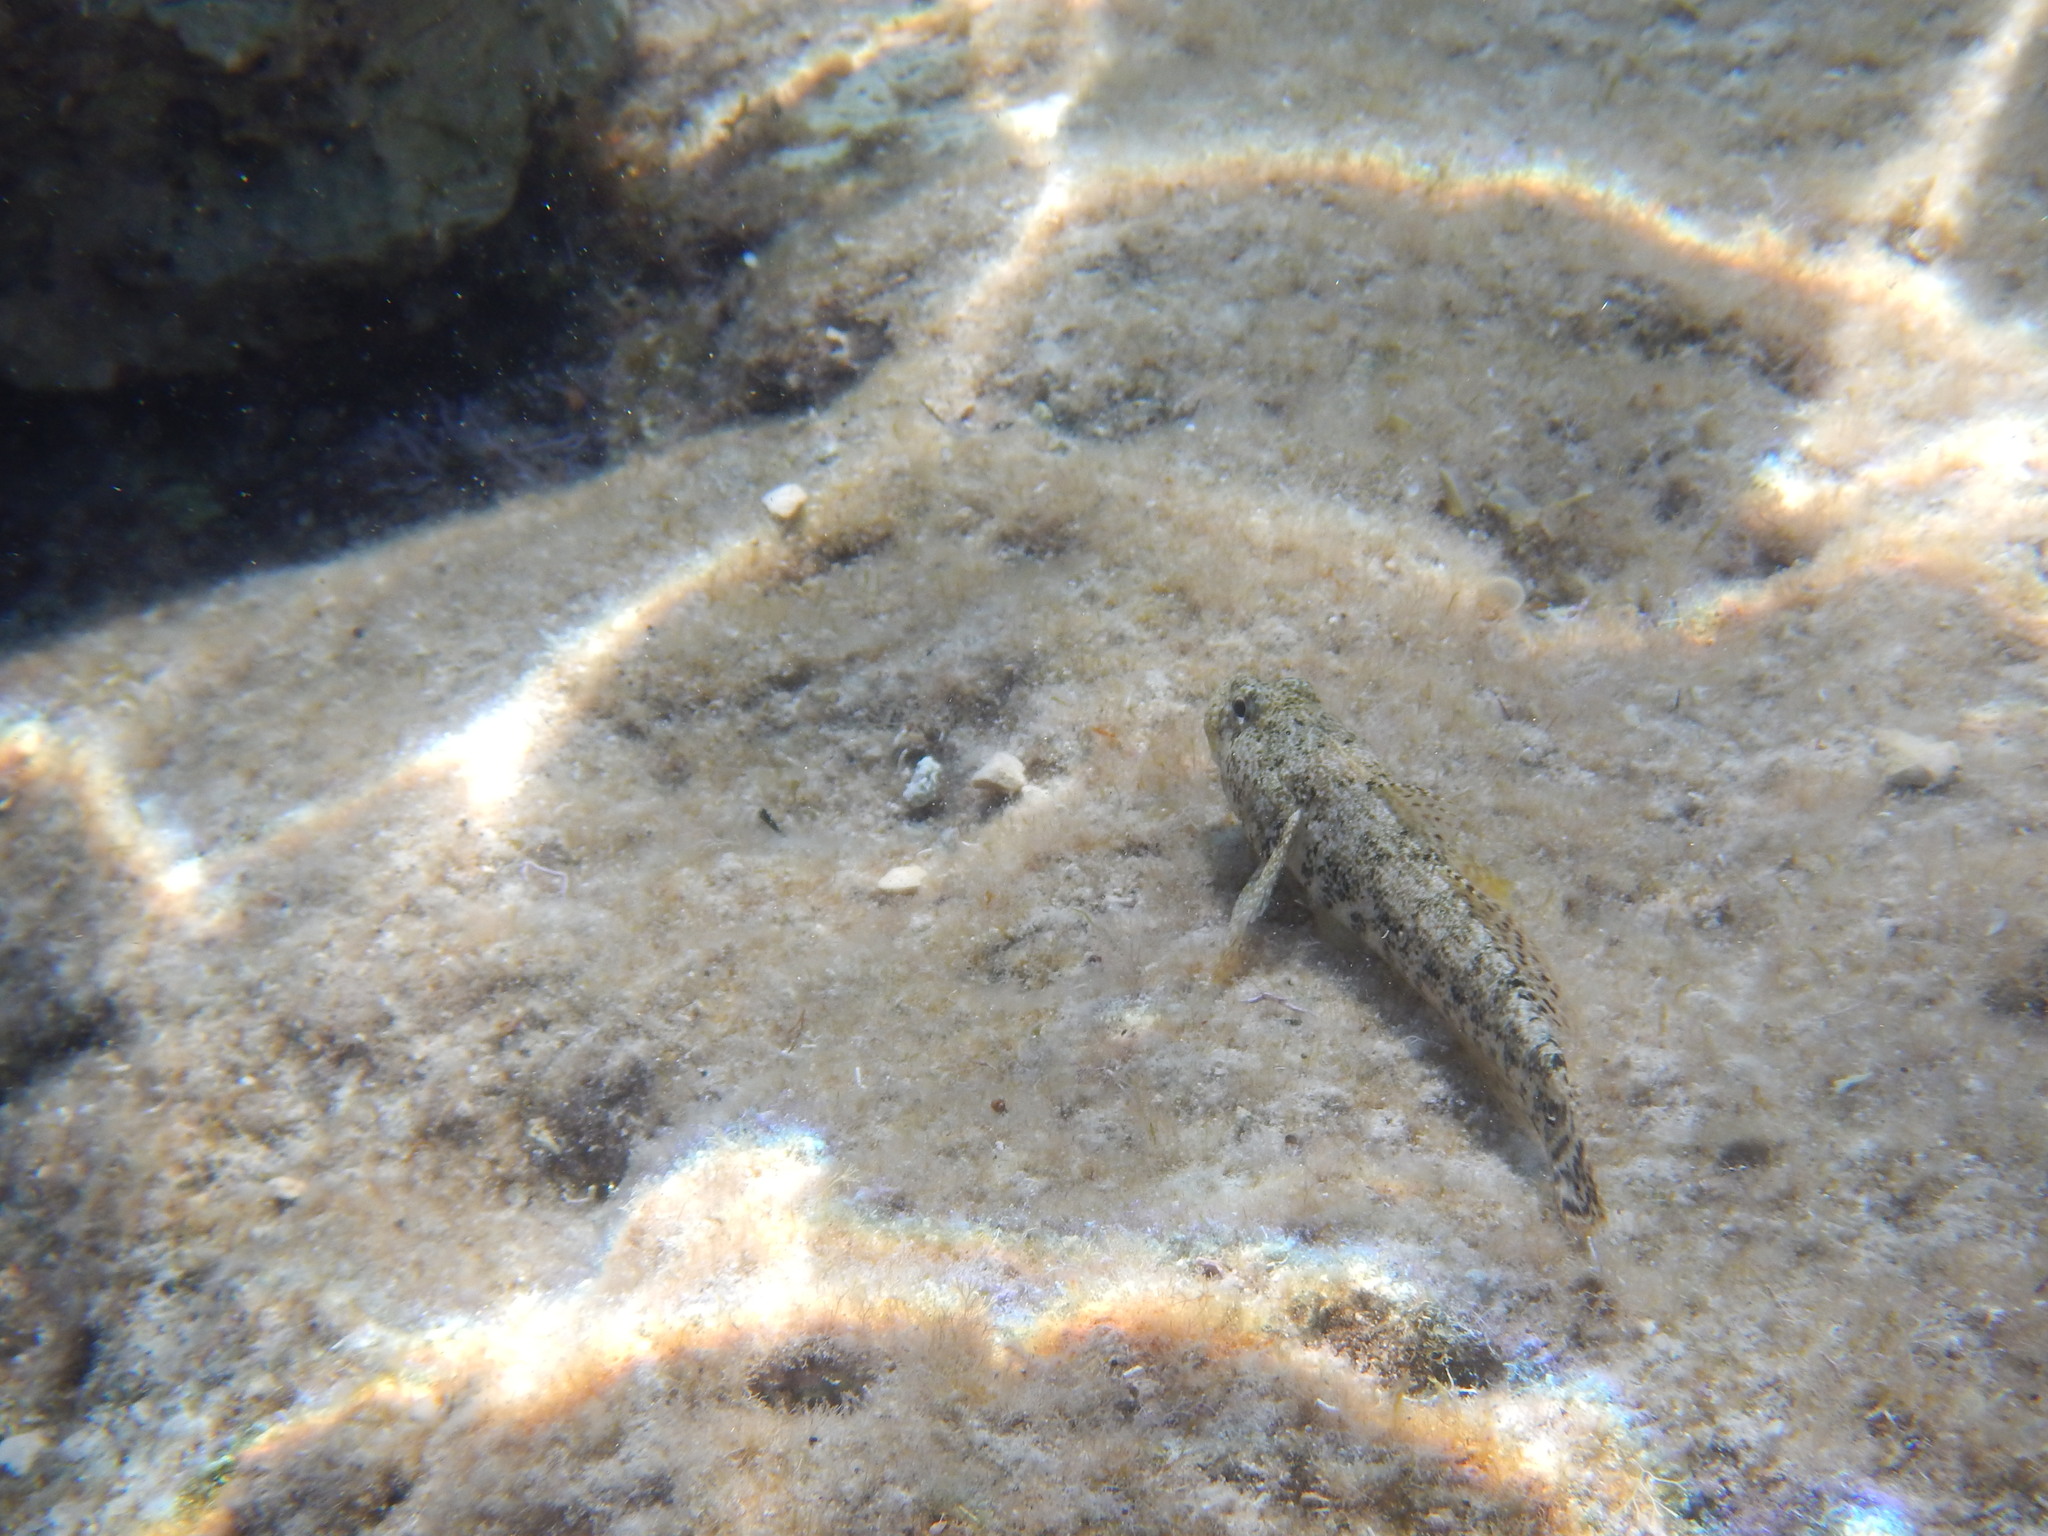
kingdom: Animalia
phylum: Chordata
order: Perciformes
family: Gobiidae
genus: Gobius
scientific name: Gobius cobitis
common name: Giant goby
